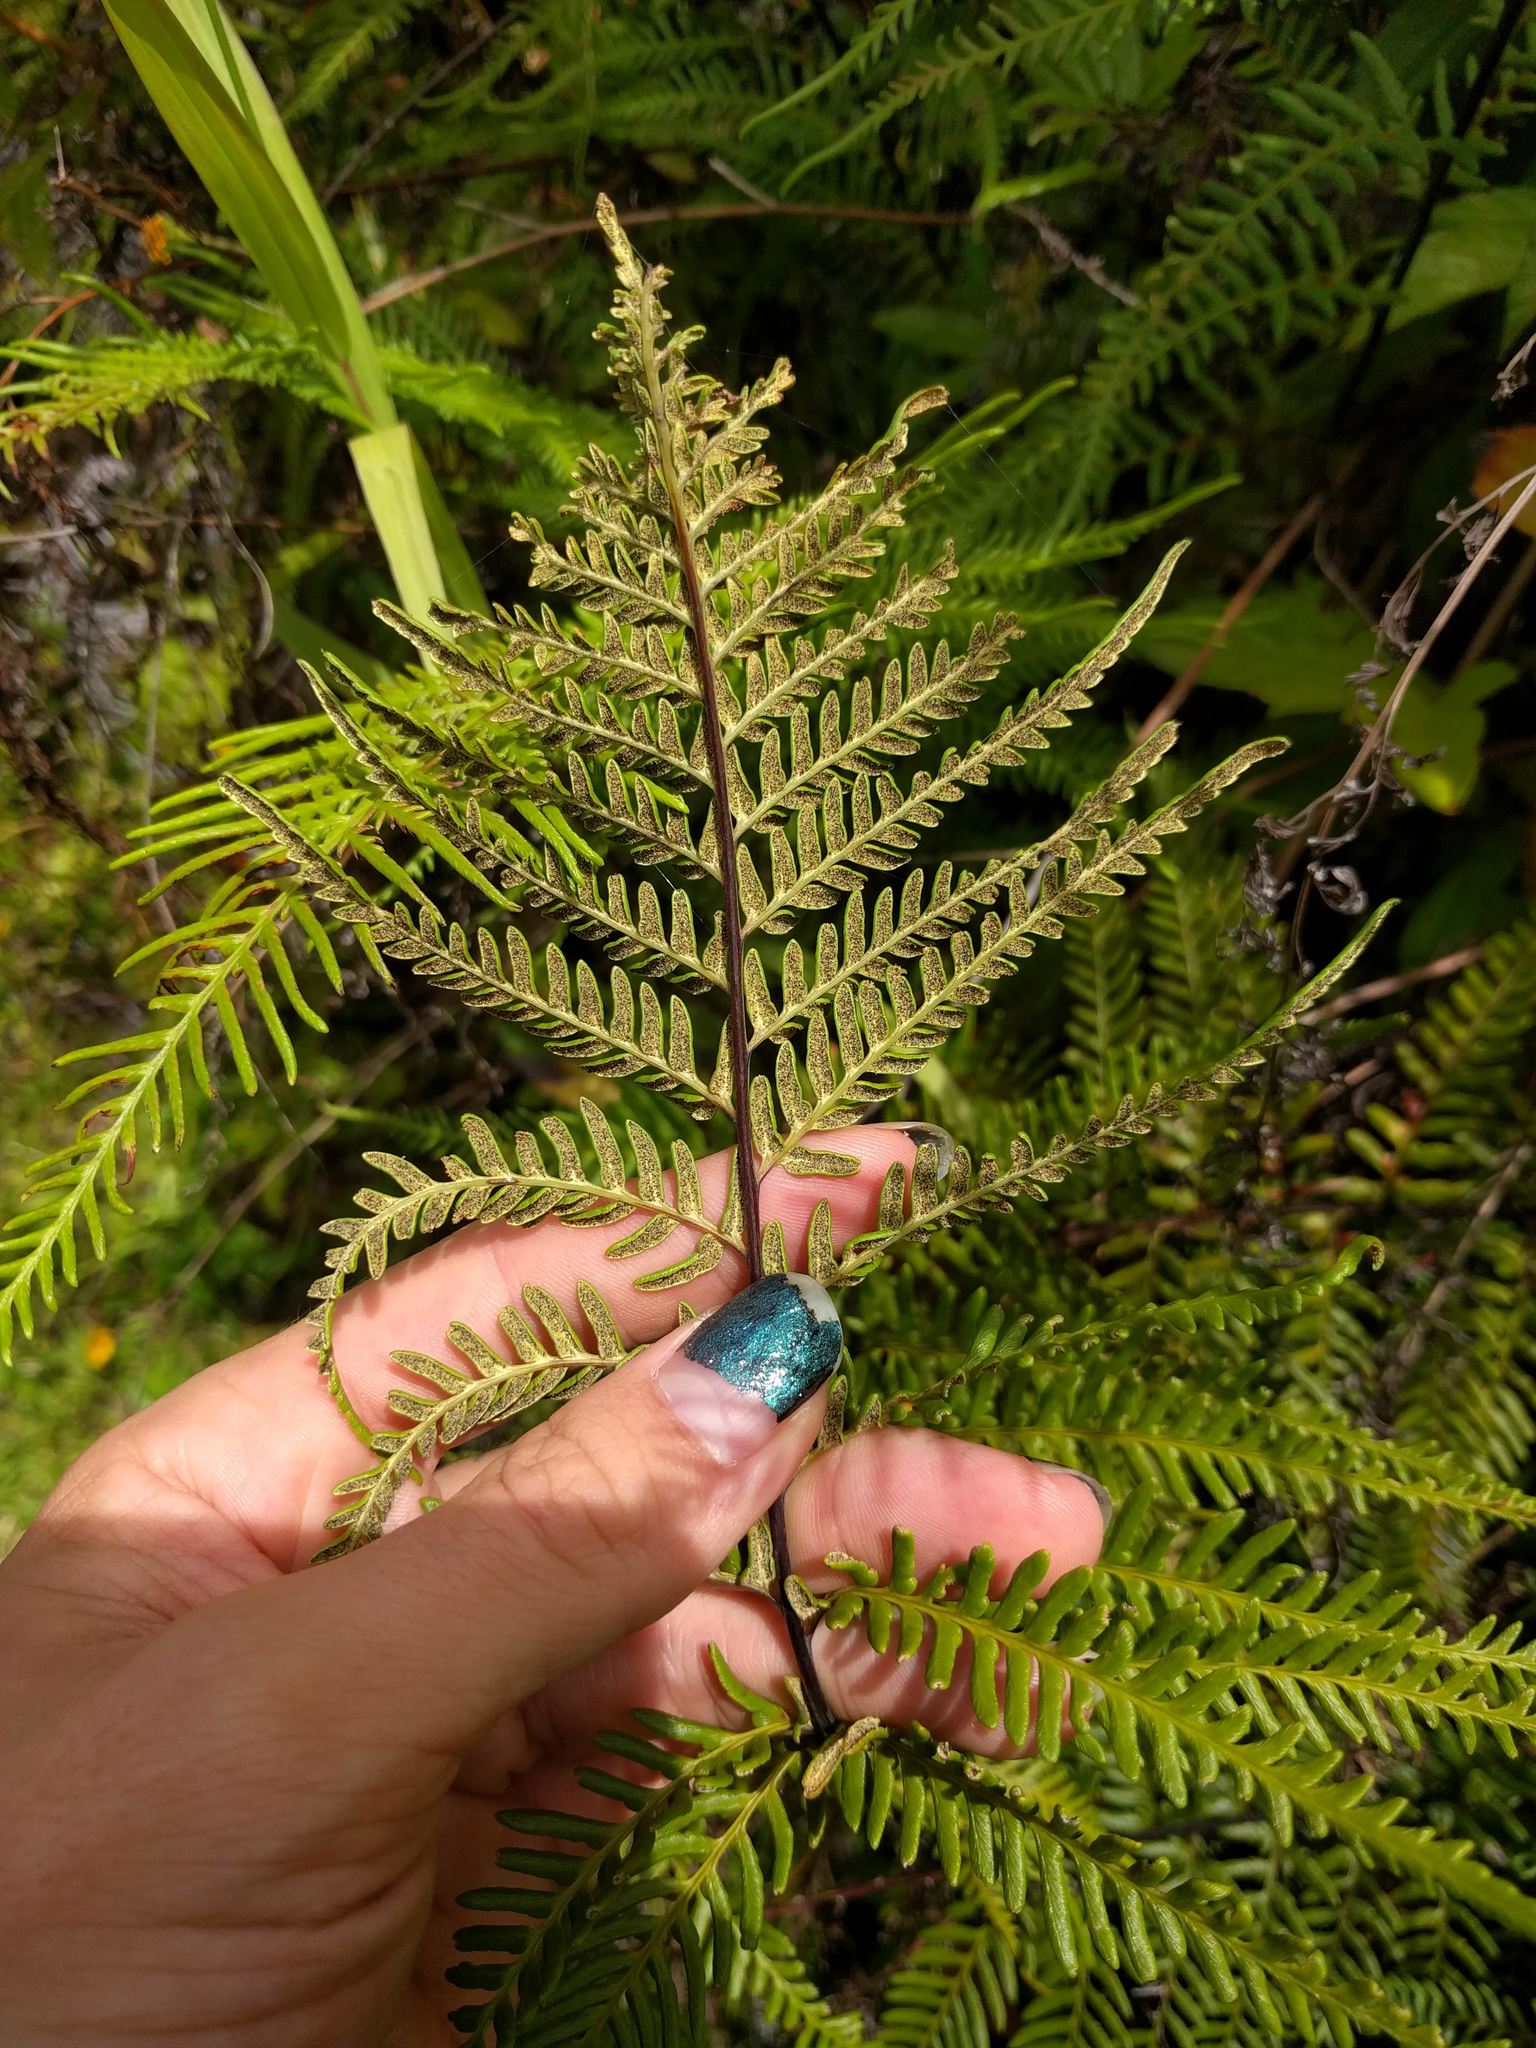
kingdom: Plantae
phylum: Tracheophyta
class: Polypodiopsida
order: Polypodiales
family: Pteridaceae
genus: Pityrogramma
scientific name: Pityrogramma calomelanos
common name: Dixie silverback fern
